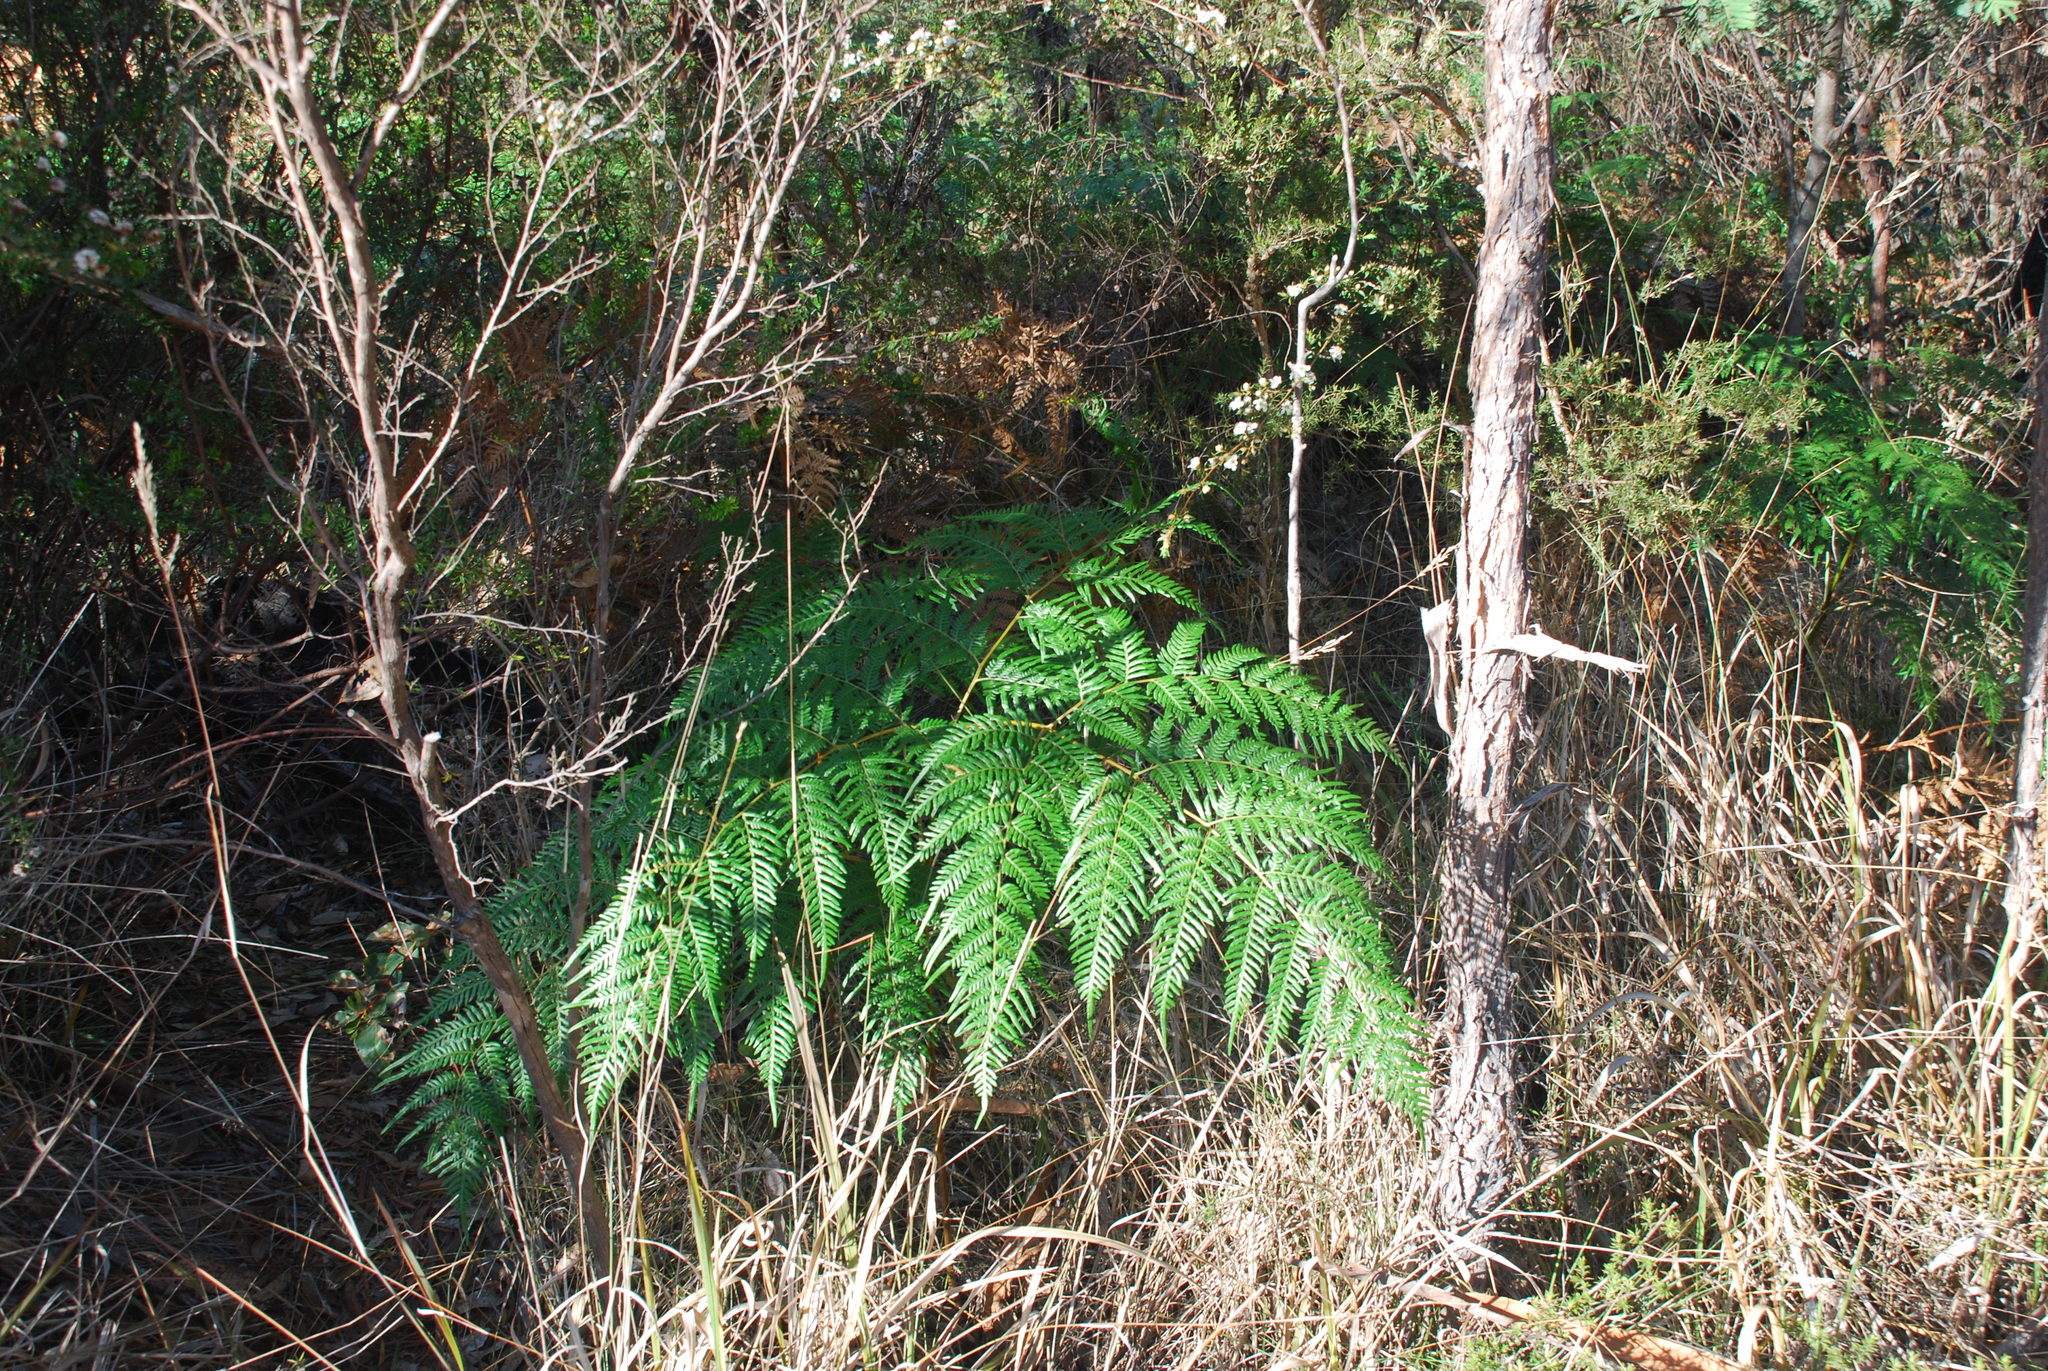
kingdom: Plantae
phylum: Tracheophyta
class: Polypodiopsida
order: Polypodiales
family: Dennstaedtiaceae
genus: Pteridium
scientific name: Pteridium esculentum
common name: Bracken fern
